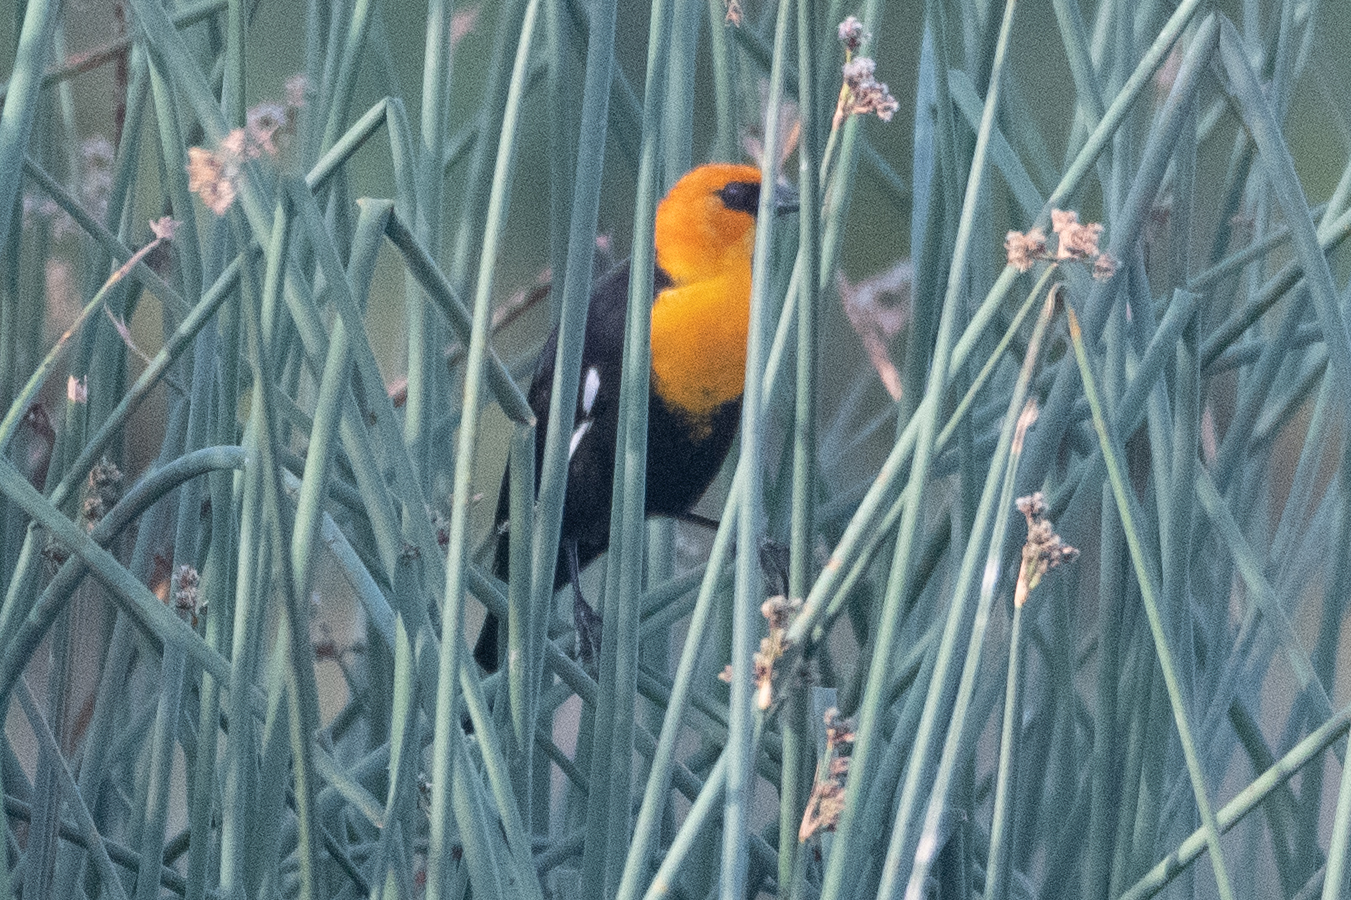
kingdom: Animalia
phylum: Chordata
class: Aves
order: Passeriformes
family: Icteridae
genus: Xanthocephalus
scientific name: Xanthocephalus xanthocephalus
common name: Yellow-headed blackbird
